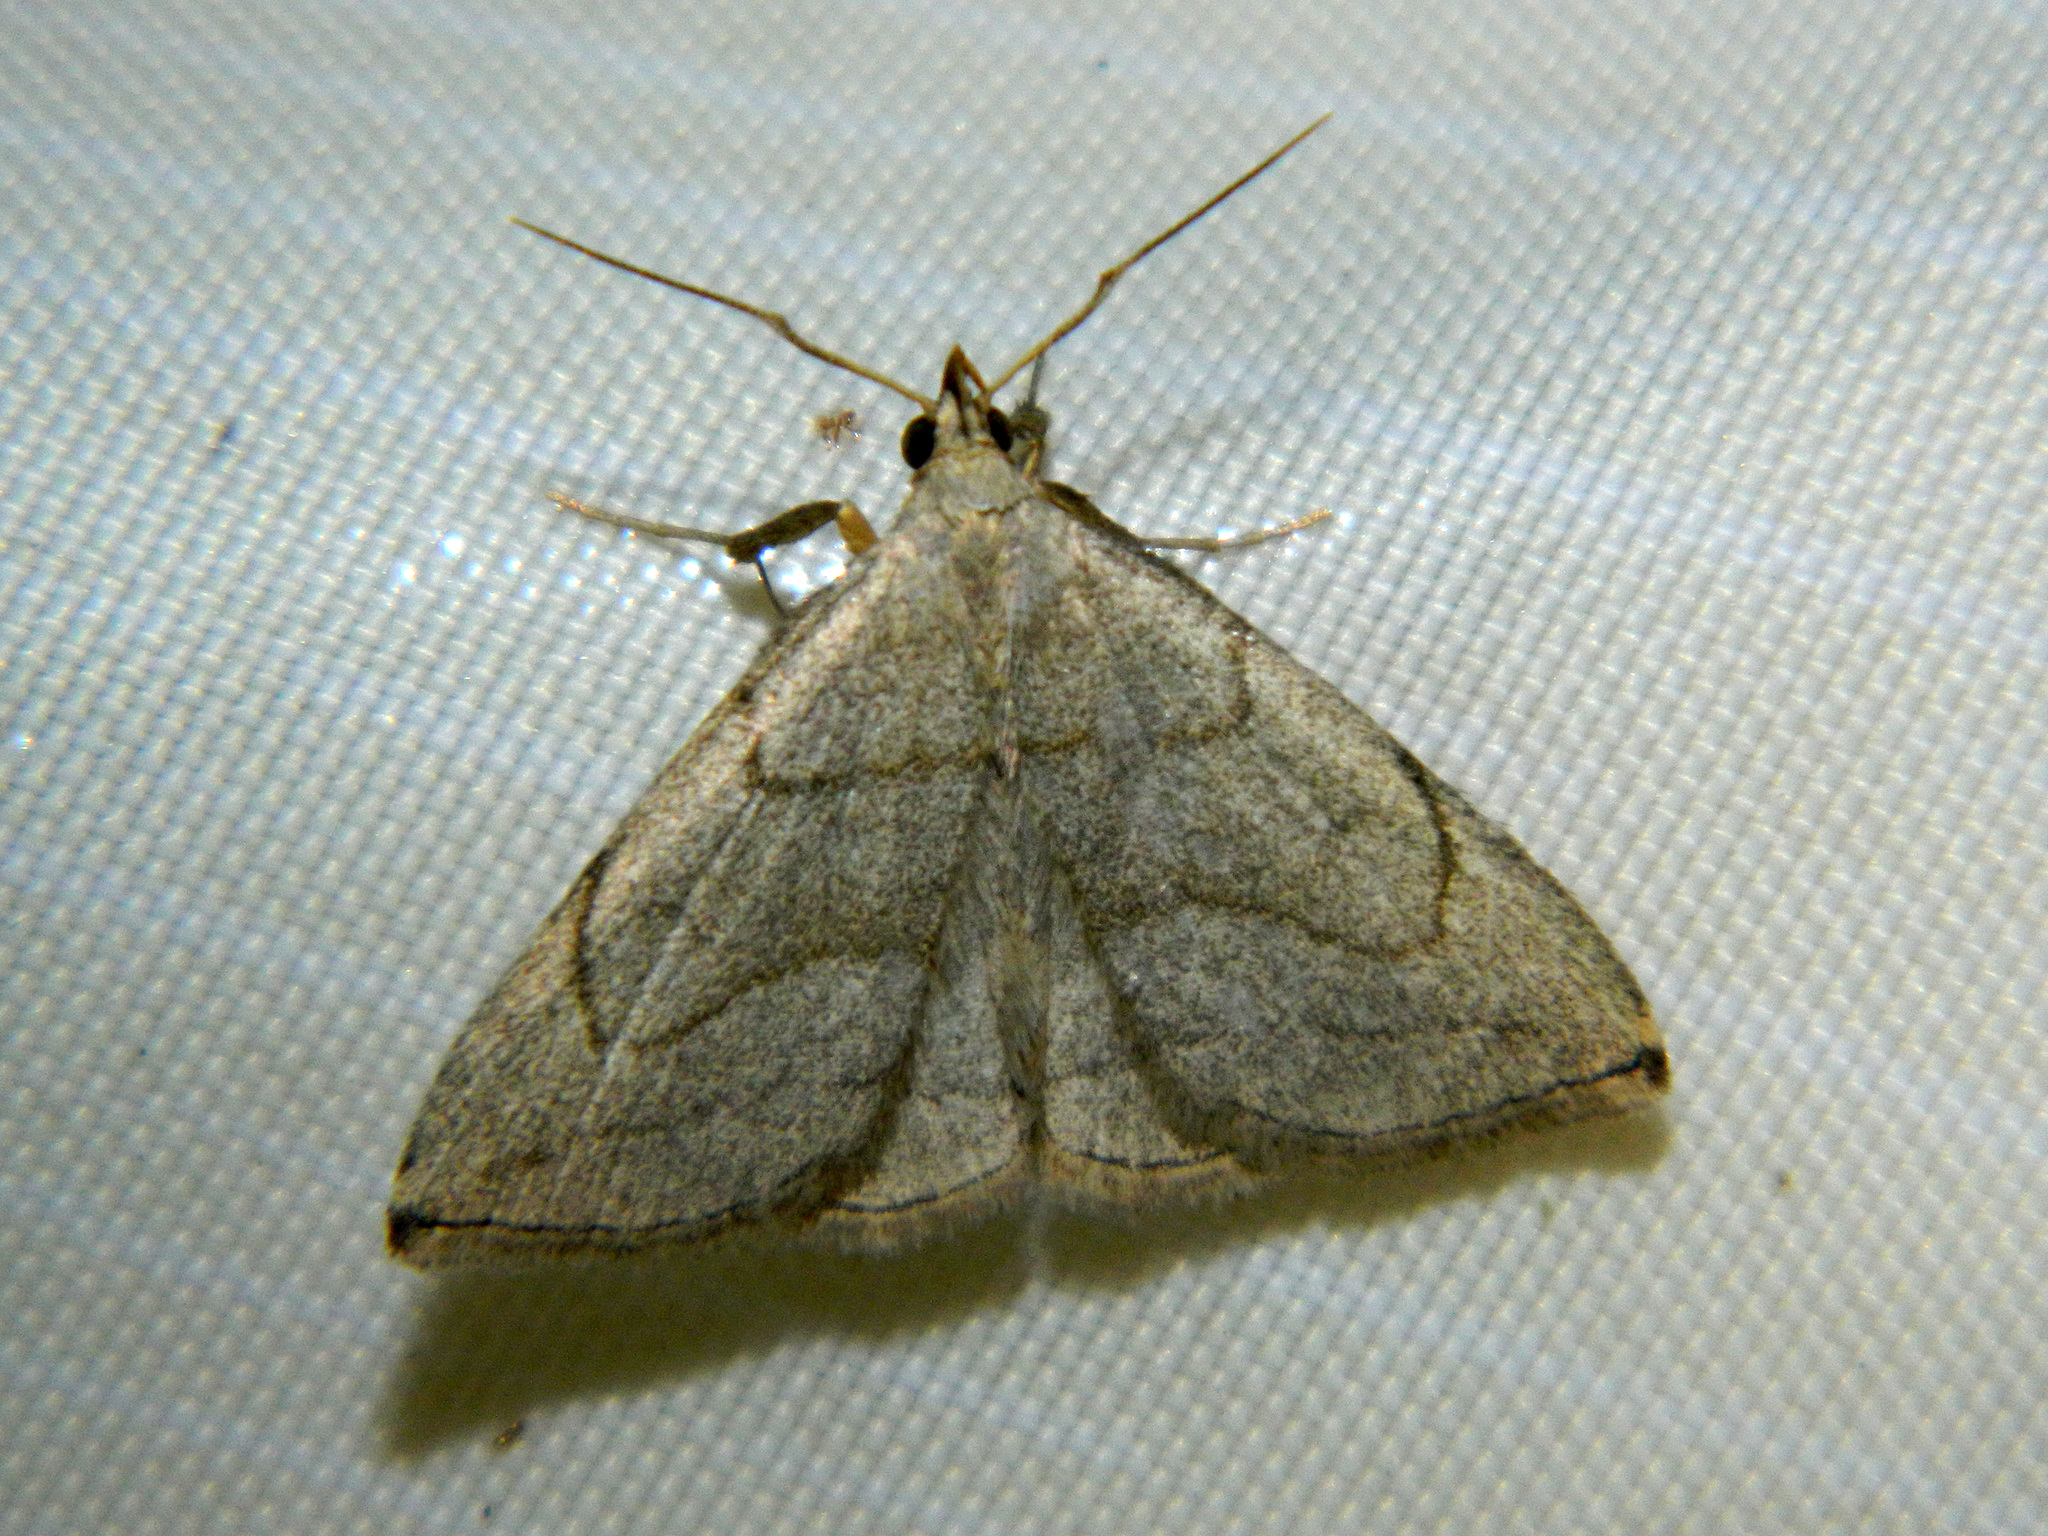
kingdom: Animalia
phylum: Arthropoda
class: Insecta
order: Lepidoptera
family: Erebidae
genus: Zanclognatha
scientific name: Zanclognatha pedipilalis
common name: Grayish fan-foot
